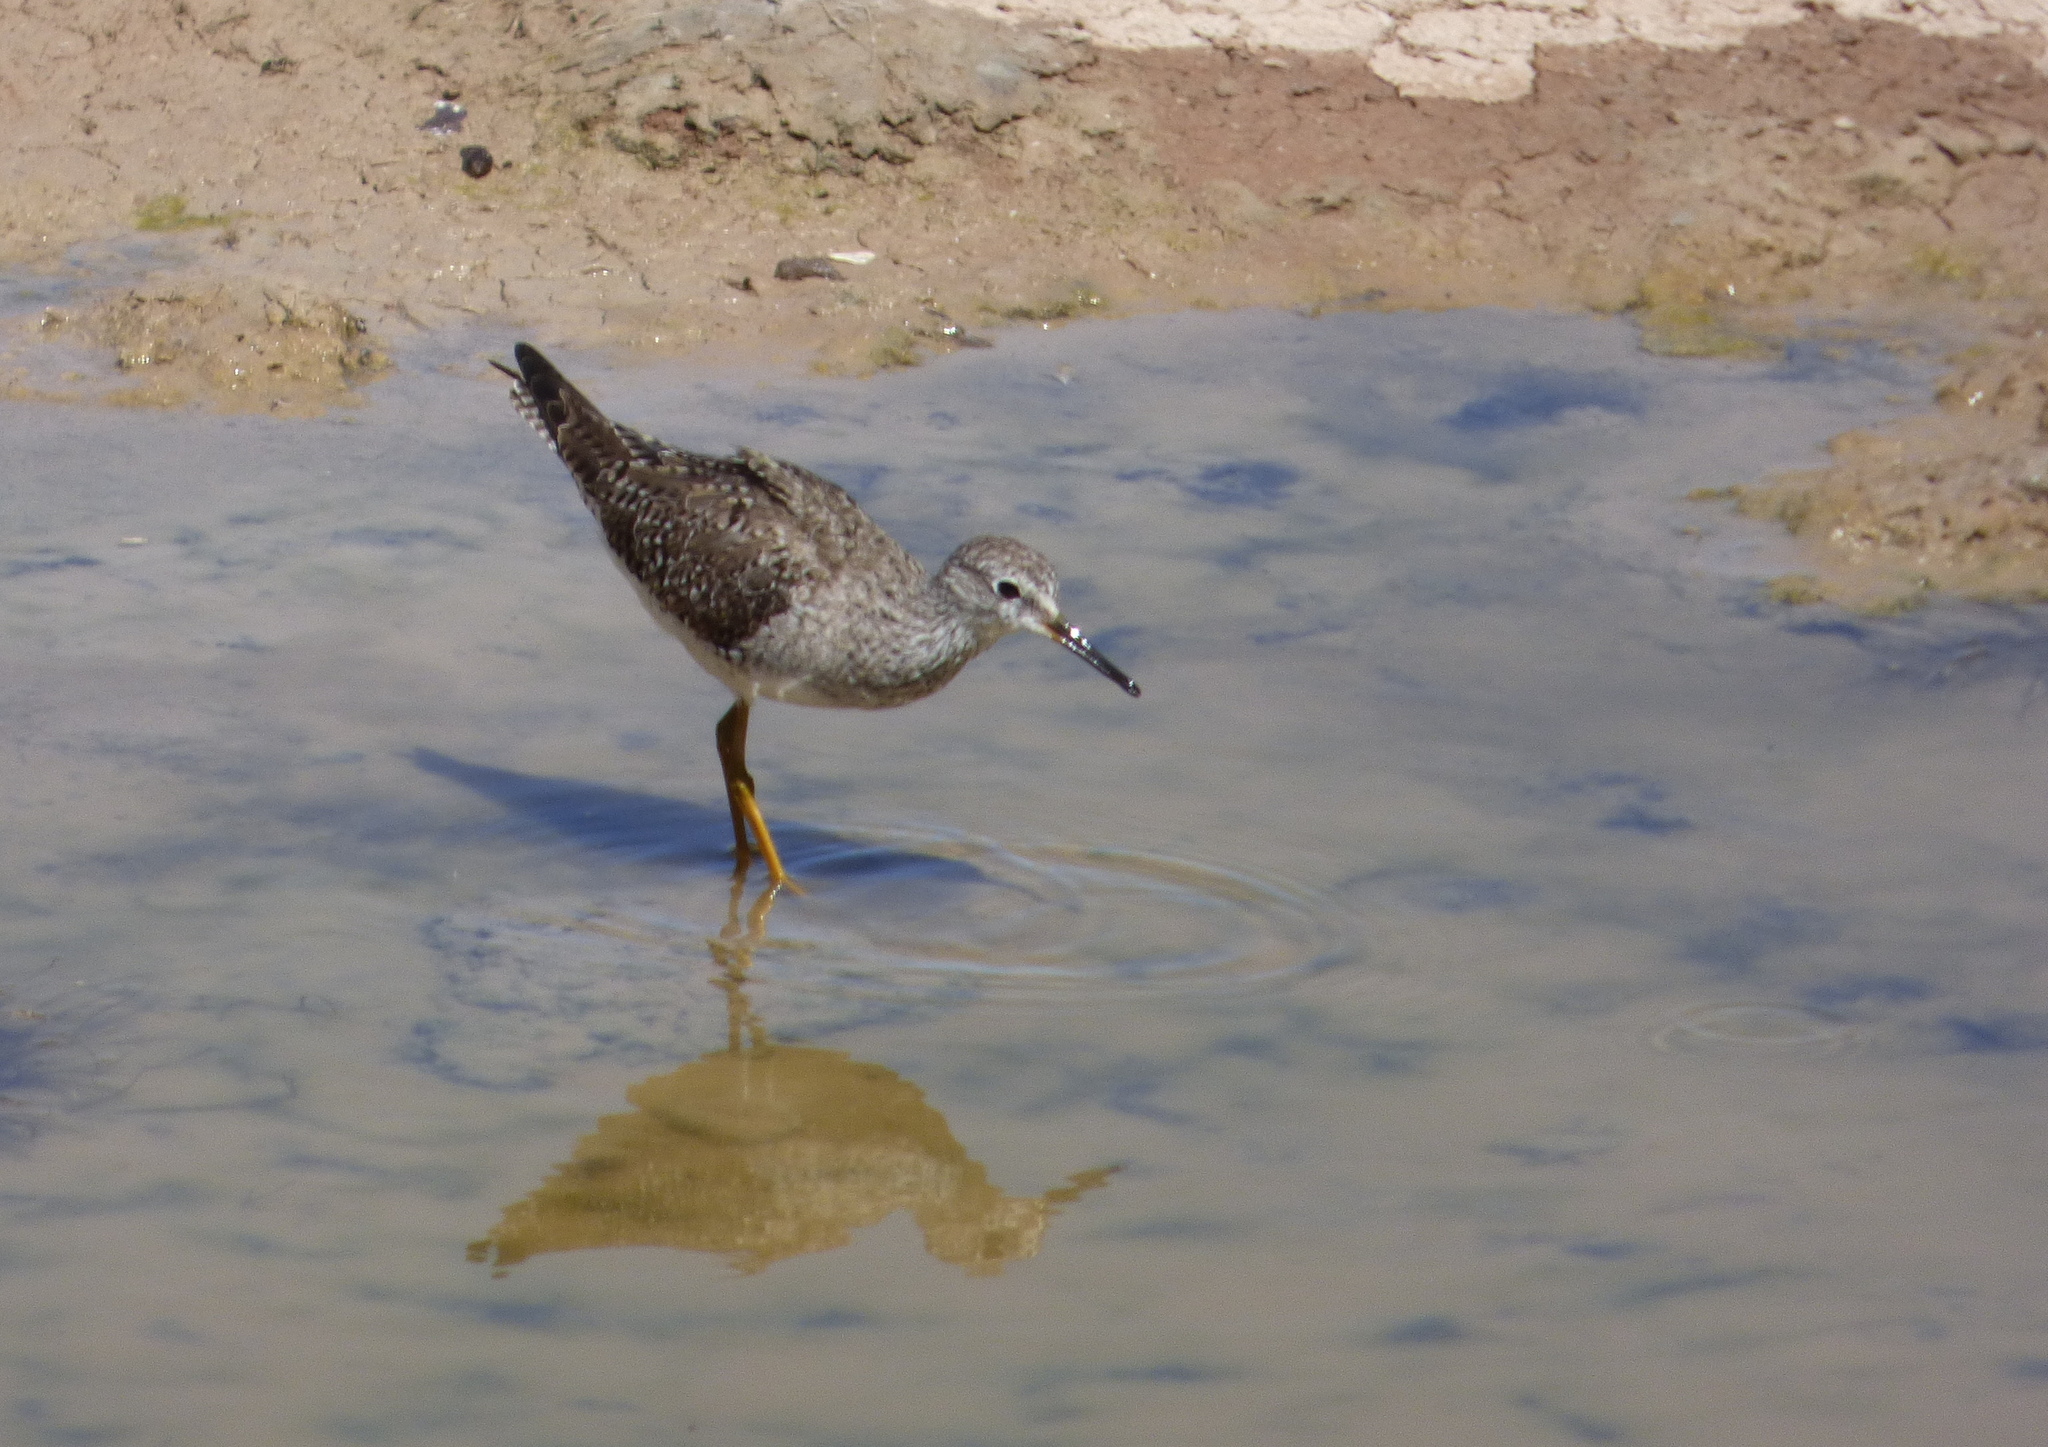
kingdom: Animalia
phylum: Chordata
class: Aves
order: Charadriiformes
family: Scolopacidae
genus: Tringa
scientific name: Tringa flavipes
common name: Lesser yellowlegs
